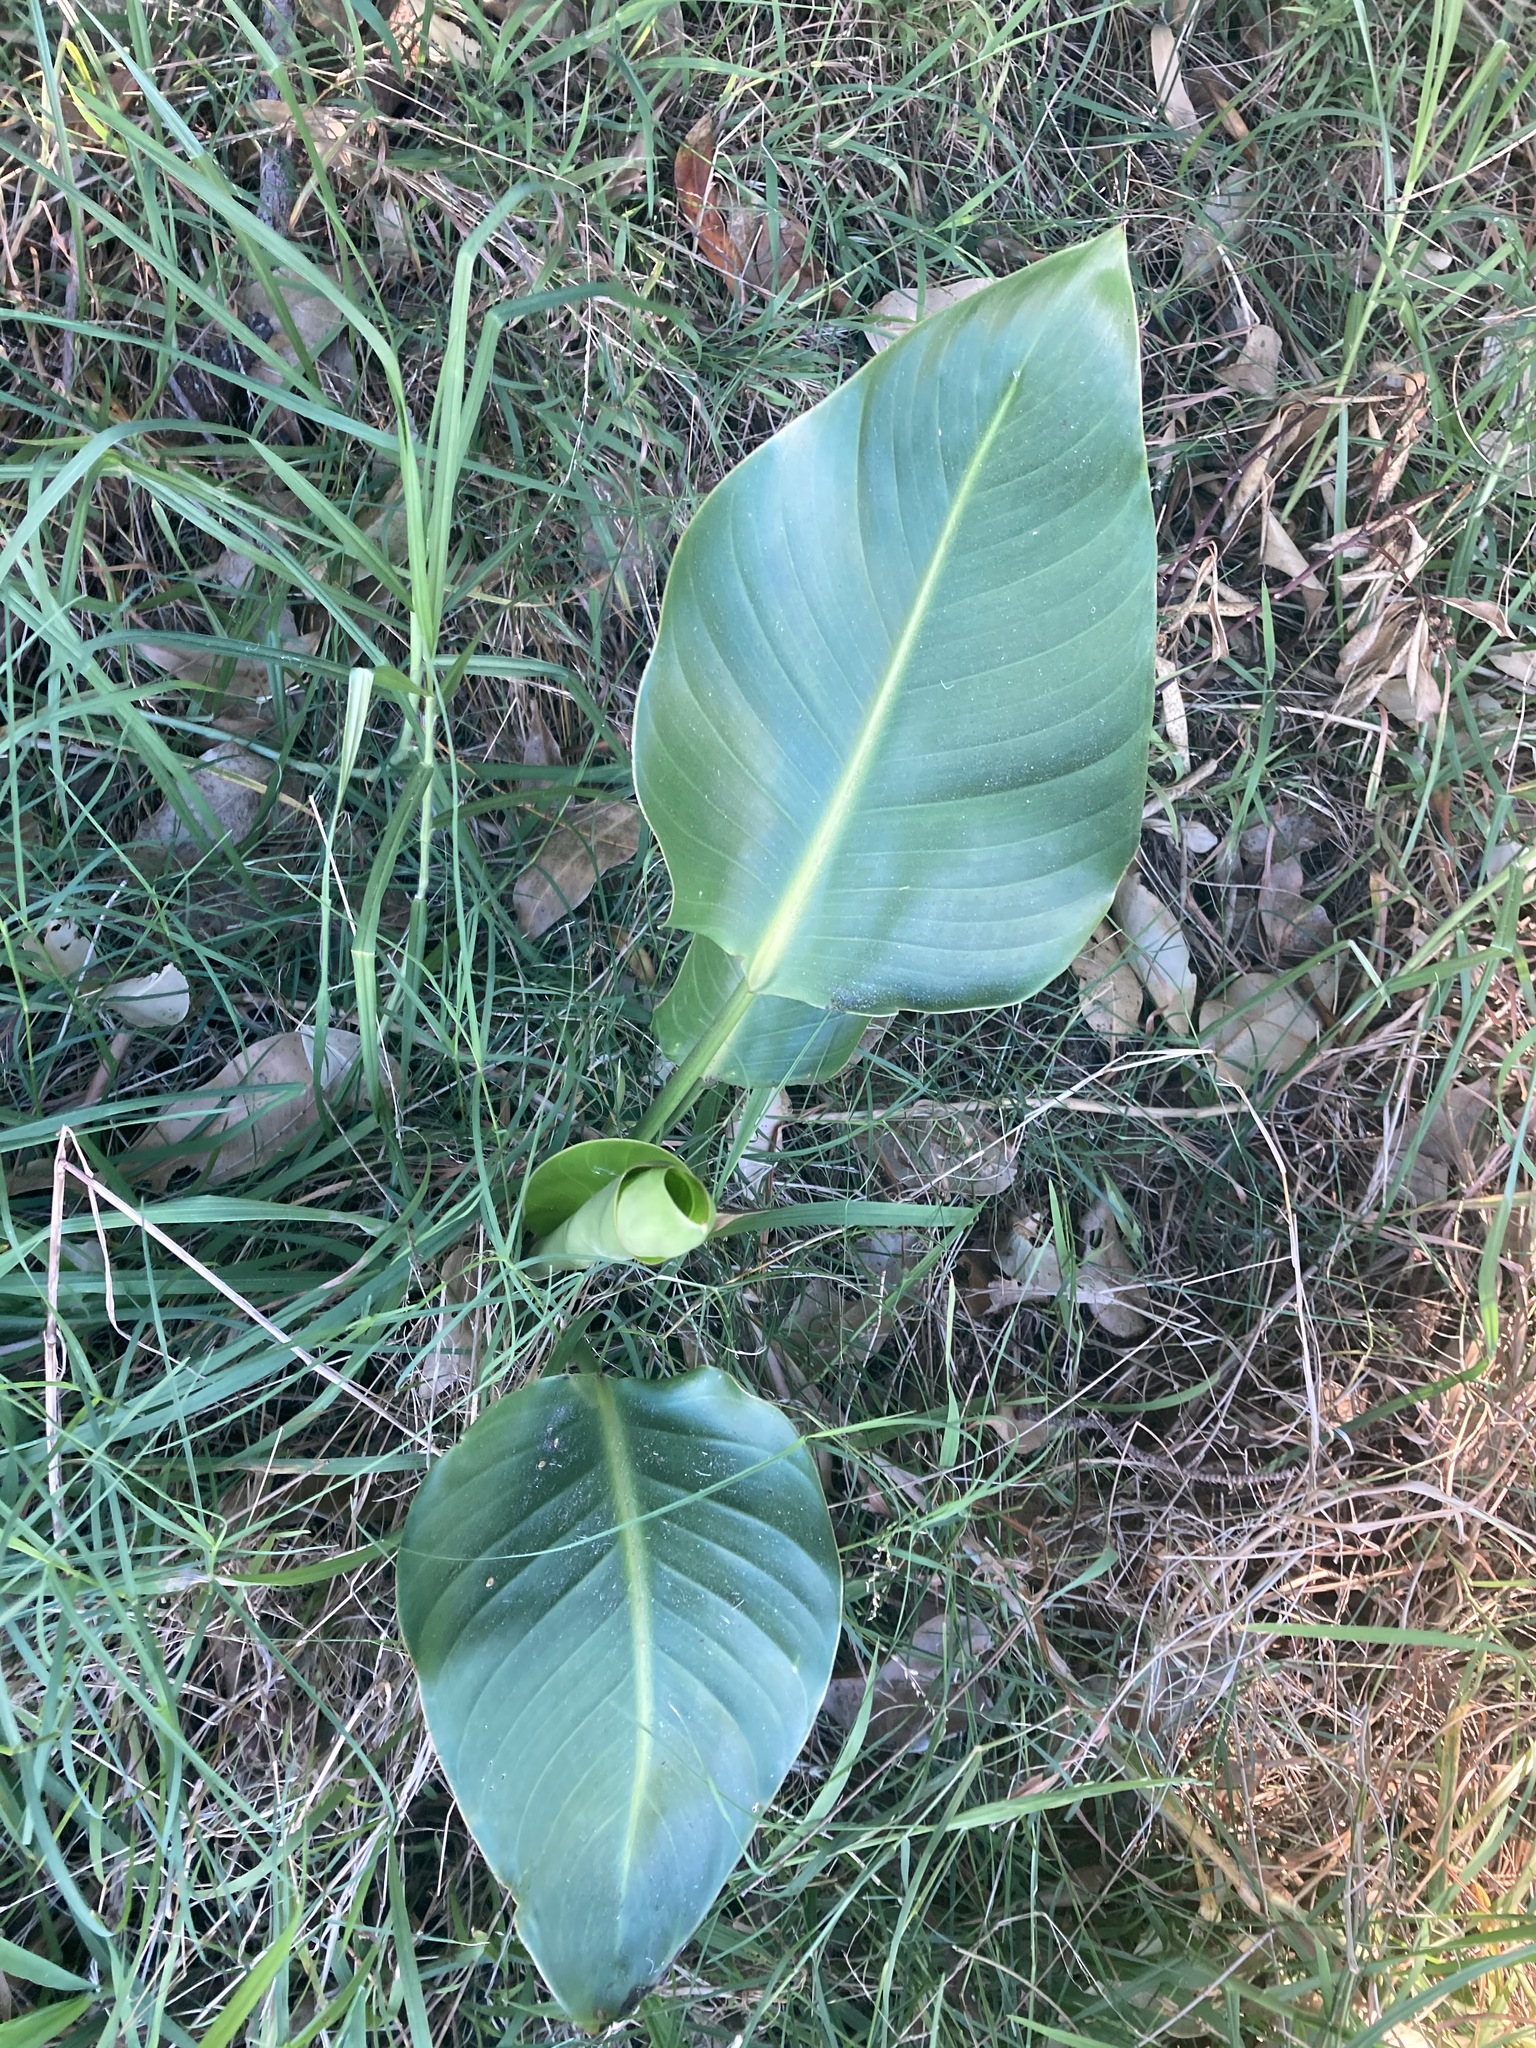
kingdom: Plantae
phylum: Tracheophyta
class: Liliopsida
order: Zingiberales
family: Strelitziaceae
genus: Strelitzia
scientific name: Strelitzia nicolai
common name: Bird-of-paradise tree
